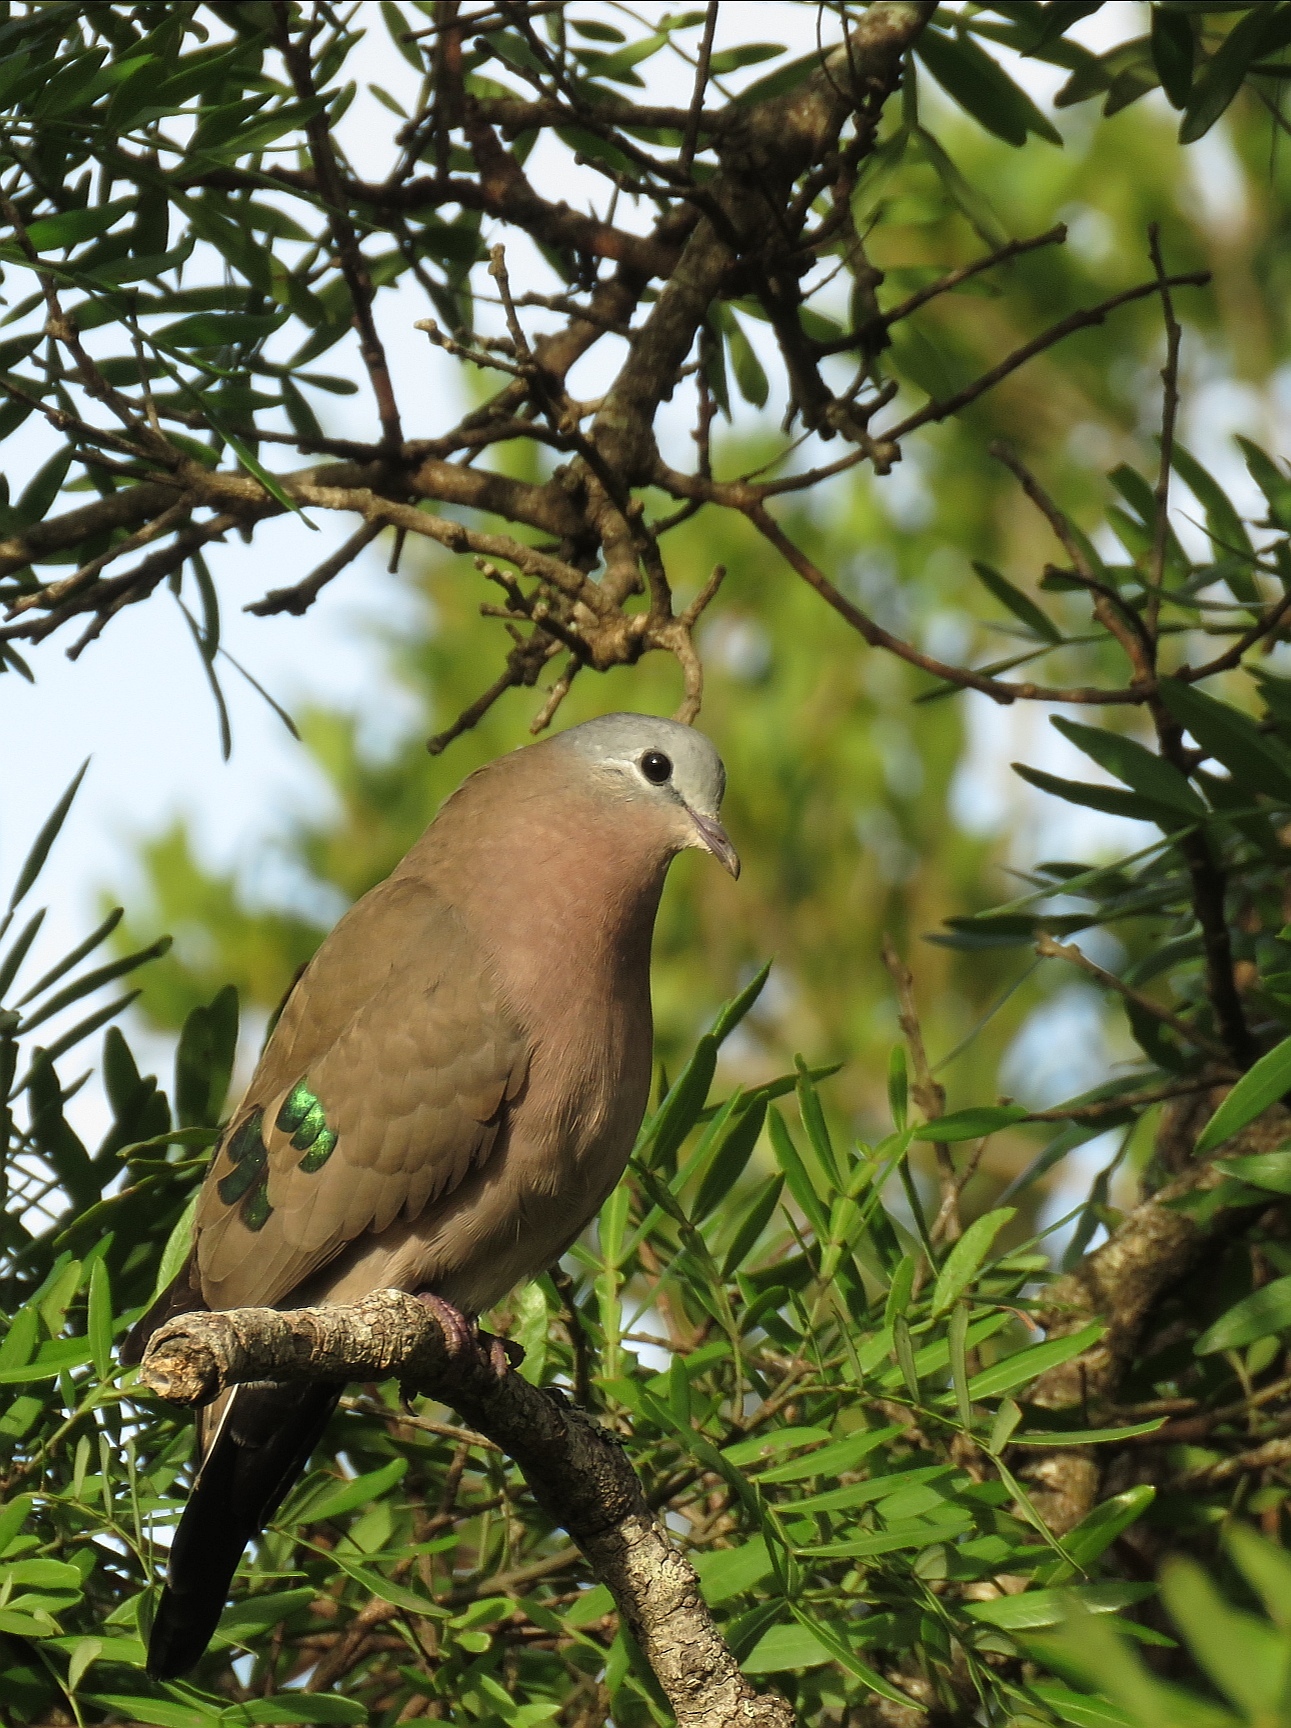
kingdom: Animalia
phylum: Chordata
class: Aves
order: Columbiformes
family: Columbidae
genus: Turtur
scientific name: Turtur chalcospilos
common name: Emerald-spotted wood dove
